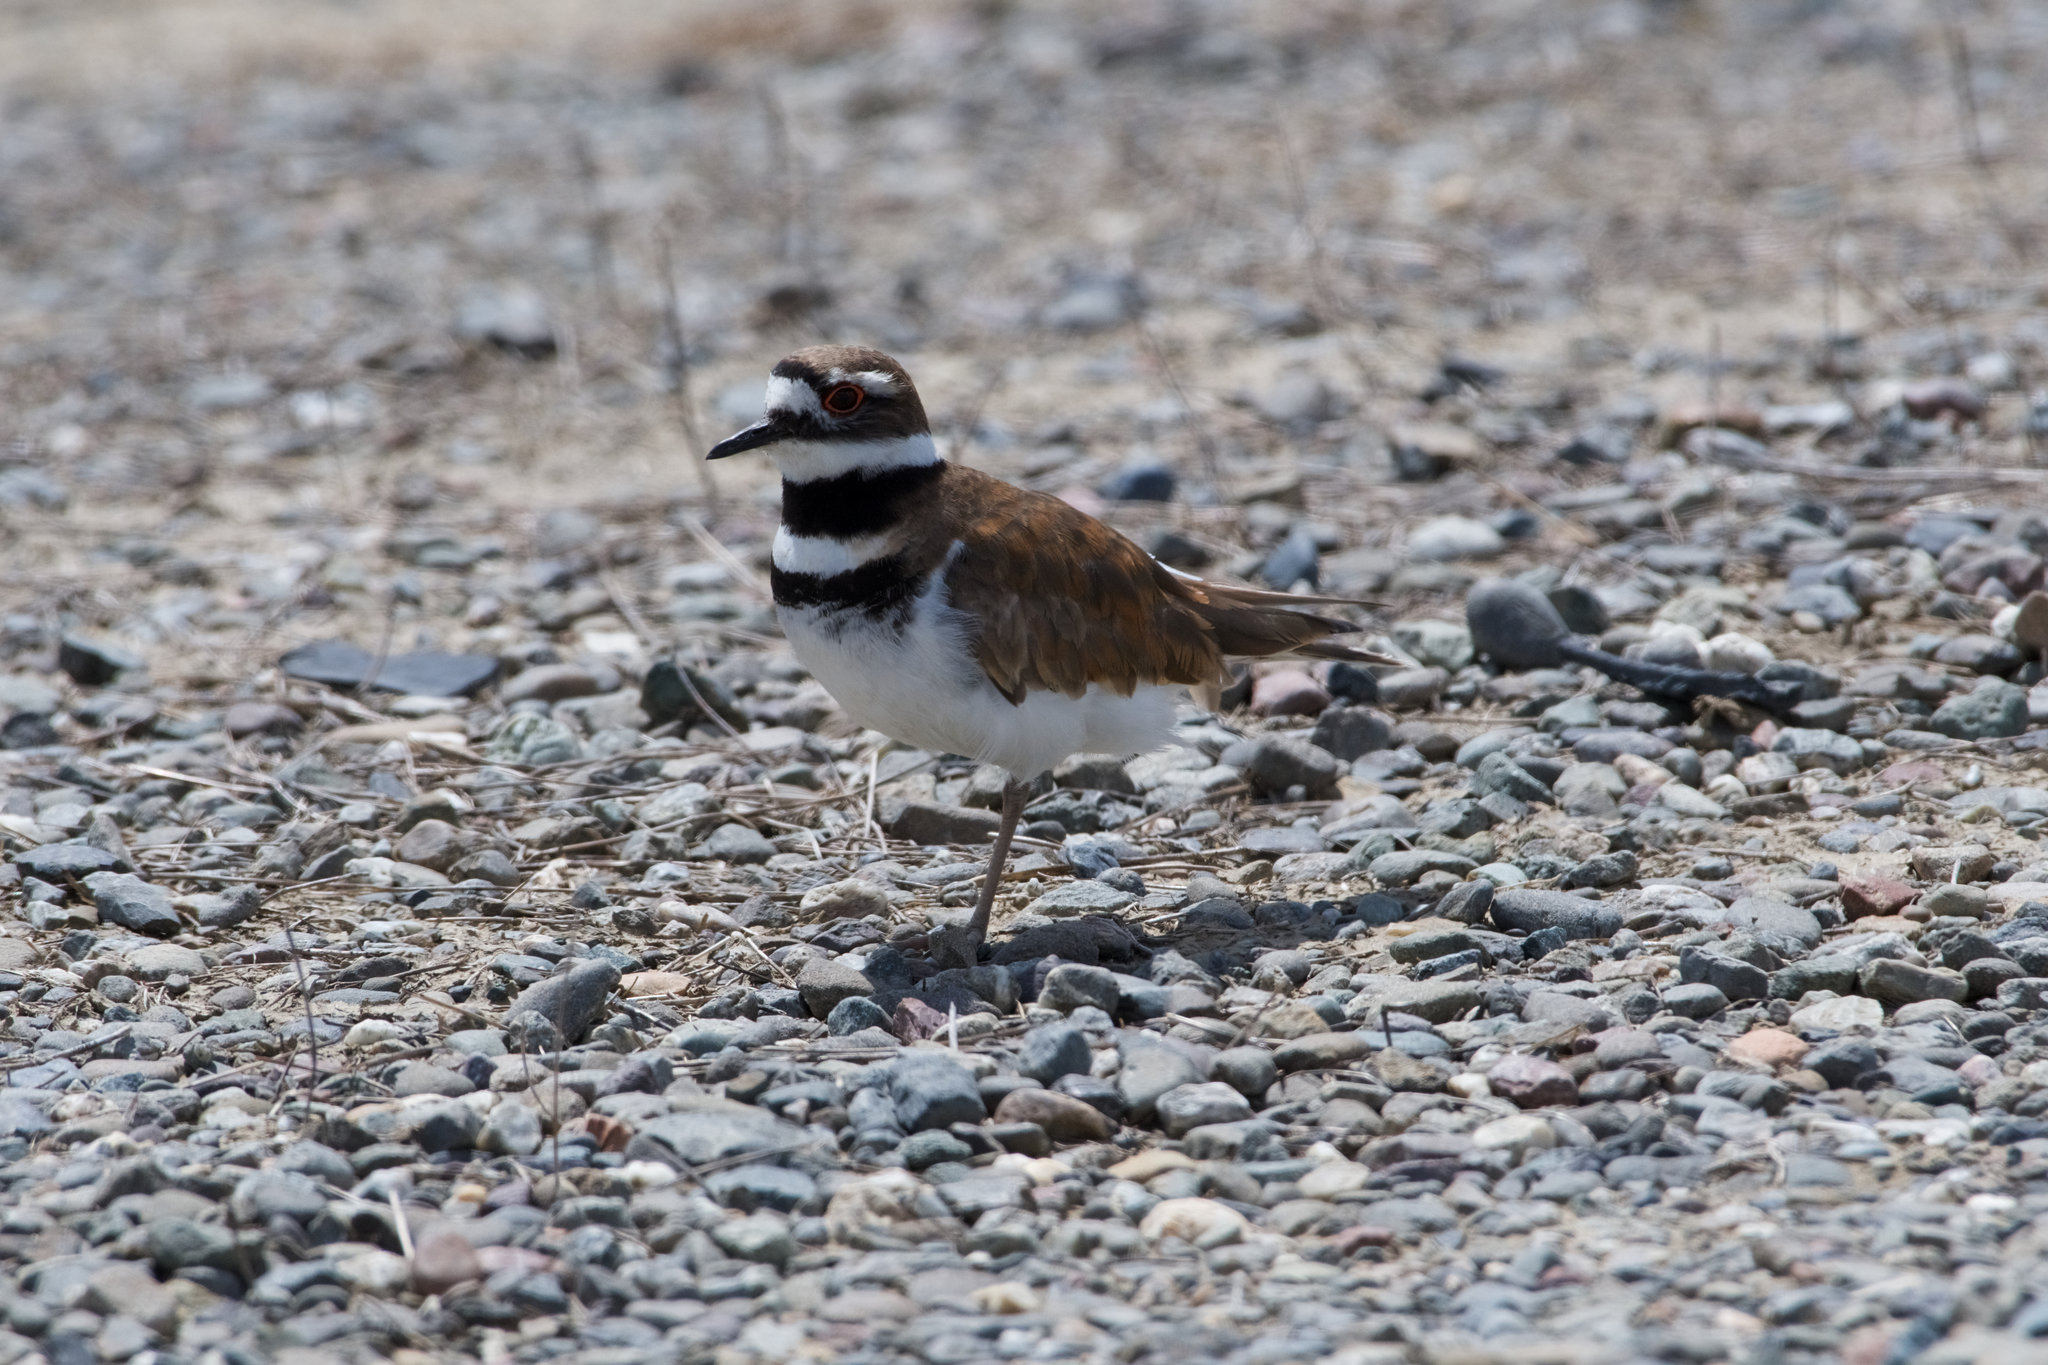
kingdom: Animalia
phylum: Chordata
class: Aves
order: Charadriiformes
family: Charadriidae
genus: Charadrius
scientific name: Charadrius vociferus
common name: Killdeer
